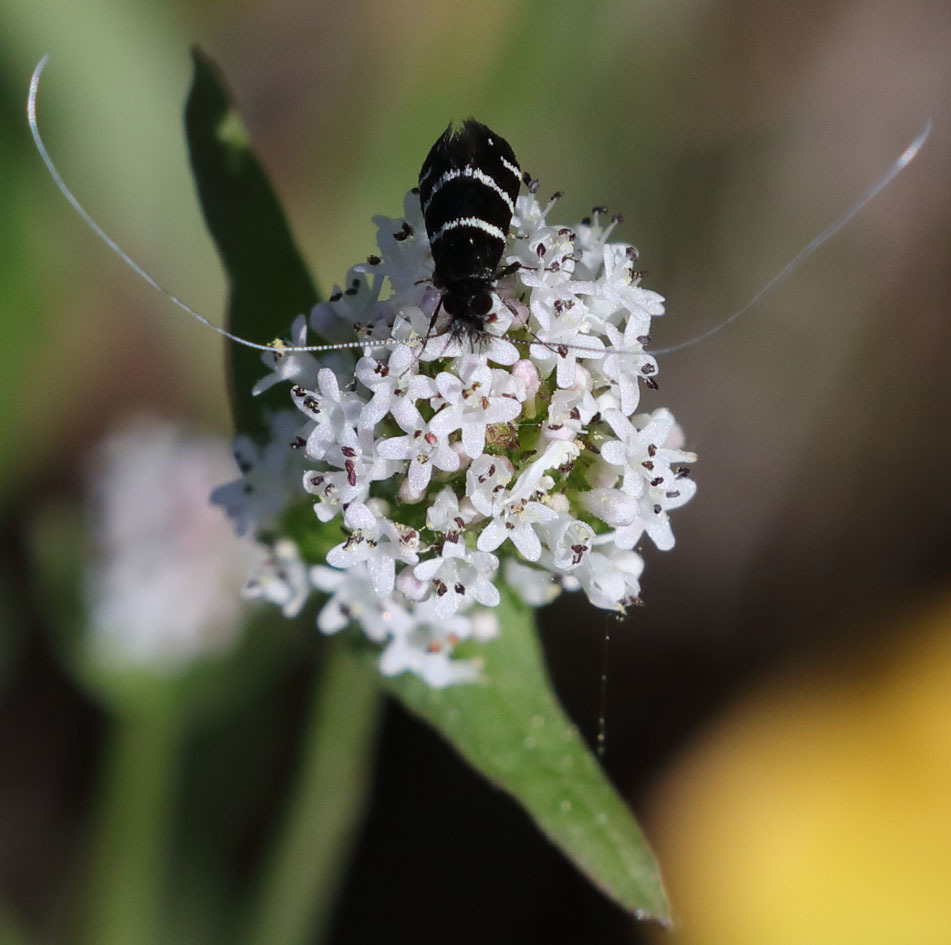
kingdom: Animalia
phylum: Arthropoda
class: Insecta
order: Lepidoptera
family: Adelidae
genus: Adela
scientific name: Adela trigrapha
